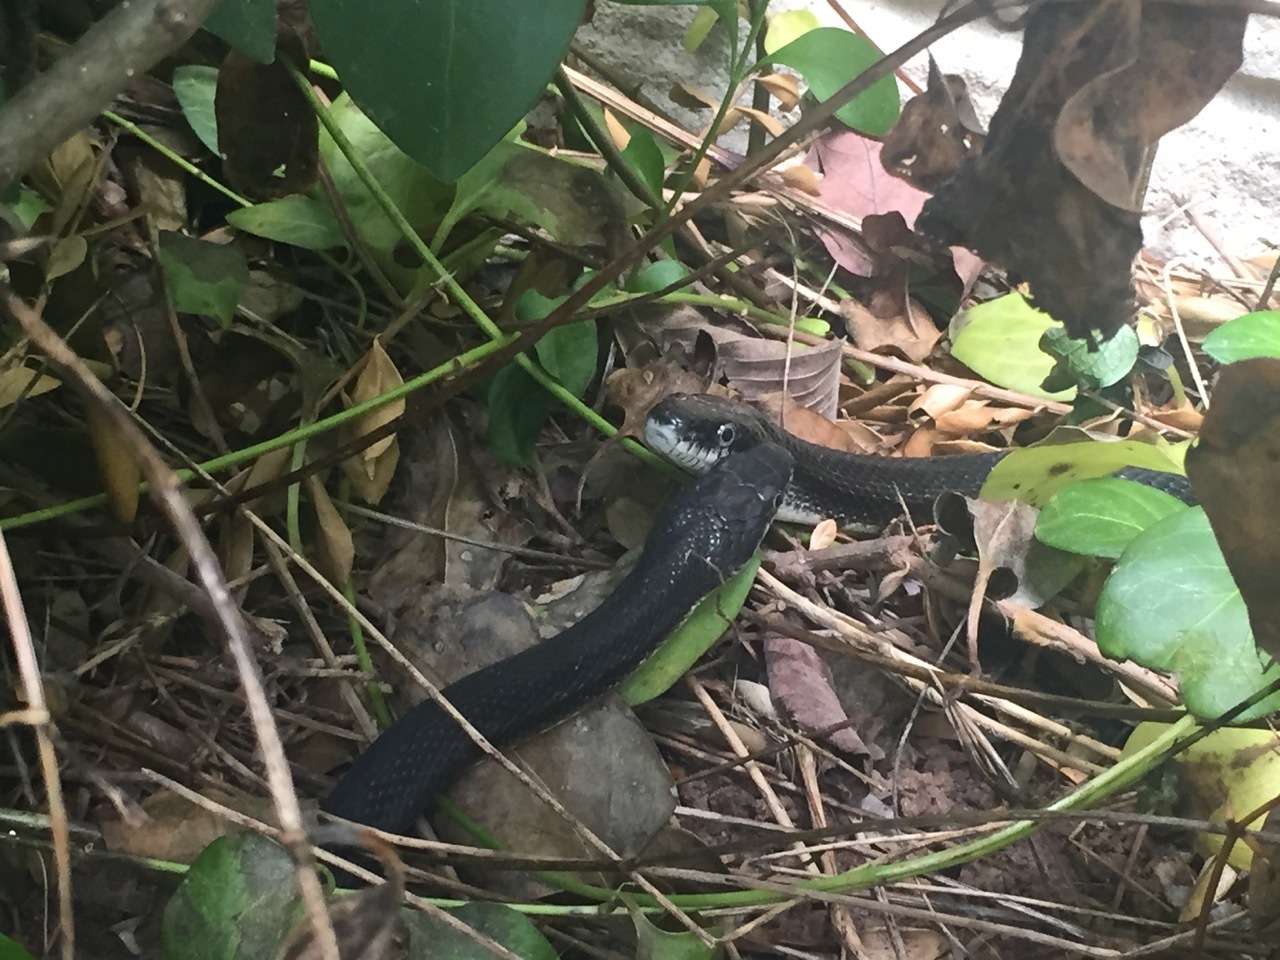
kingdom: Animalia
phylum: Chordata
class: Squamata
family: Colubridae
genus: Pantherophis
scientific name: Pantherophis alleghaniensis
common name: Eastern rat snake
